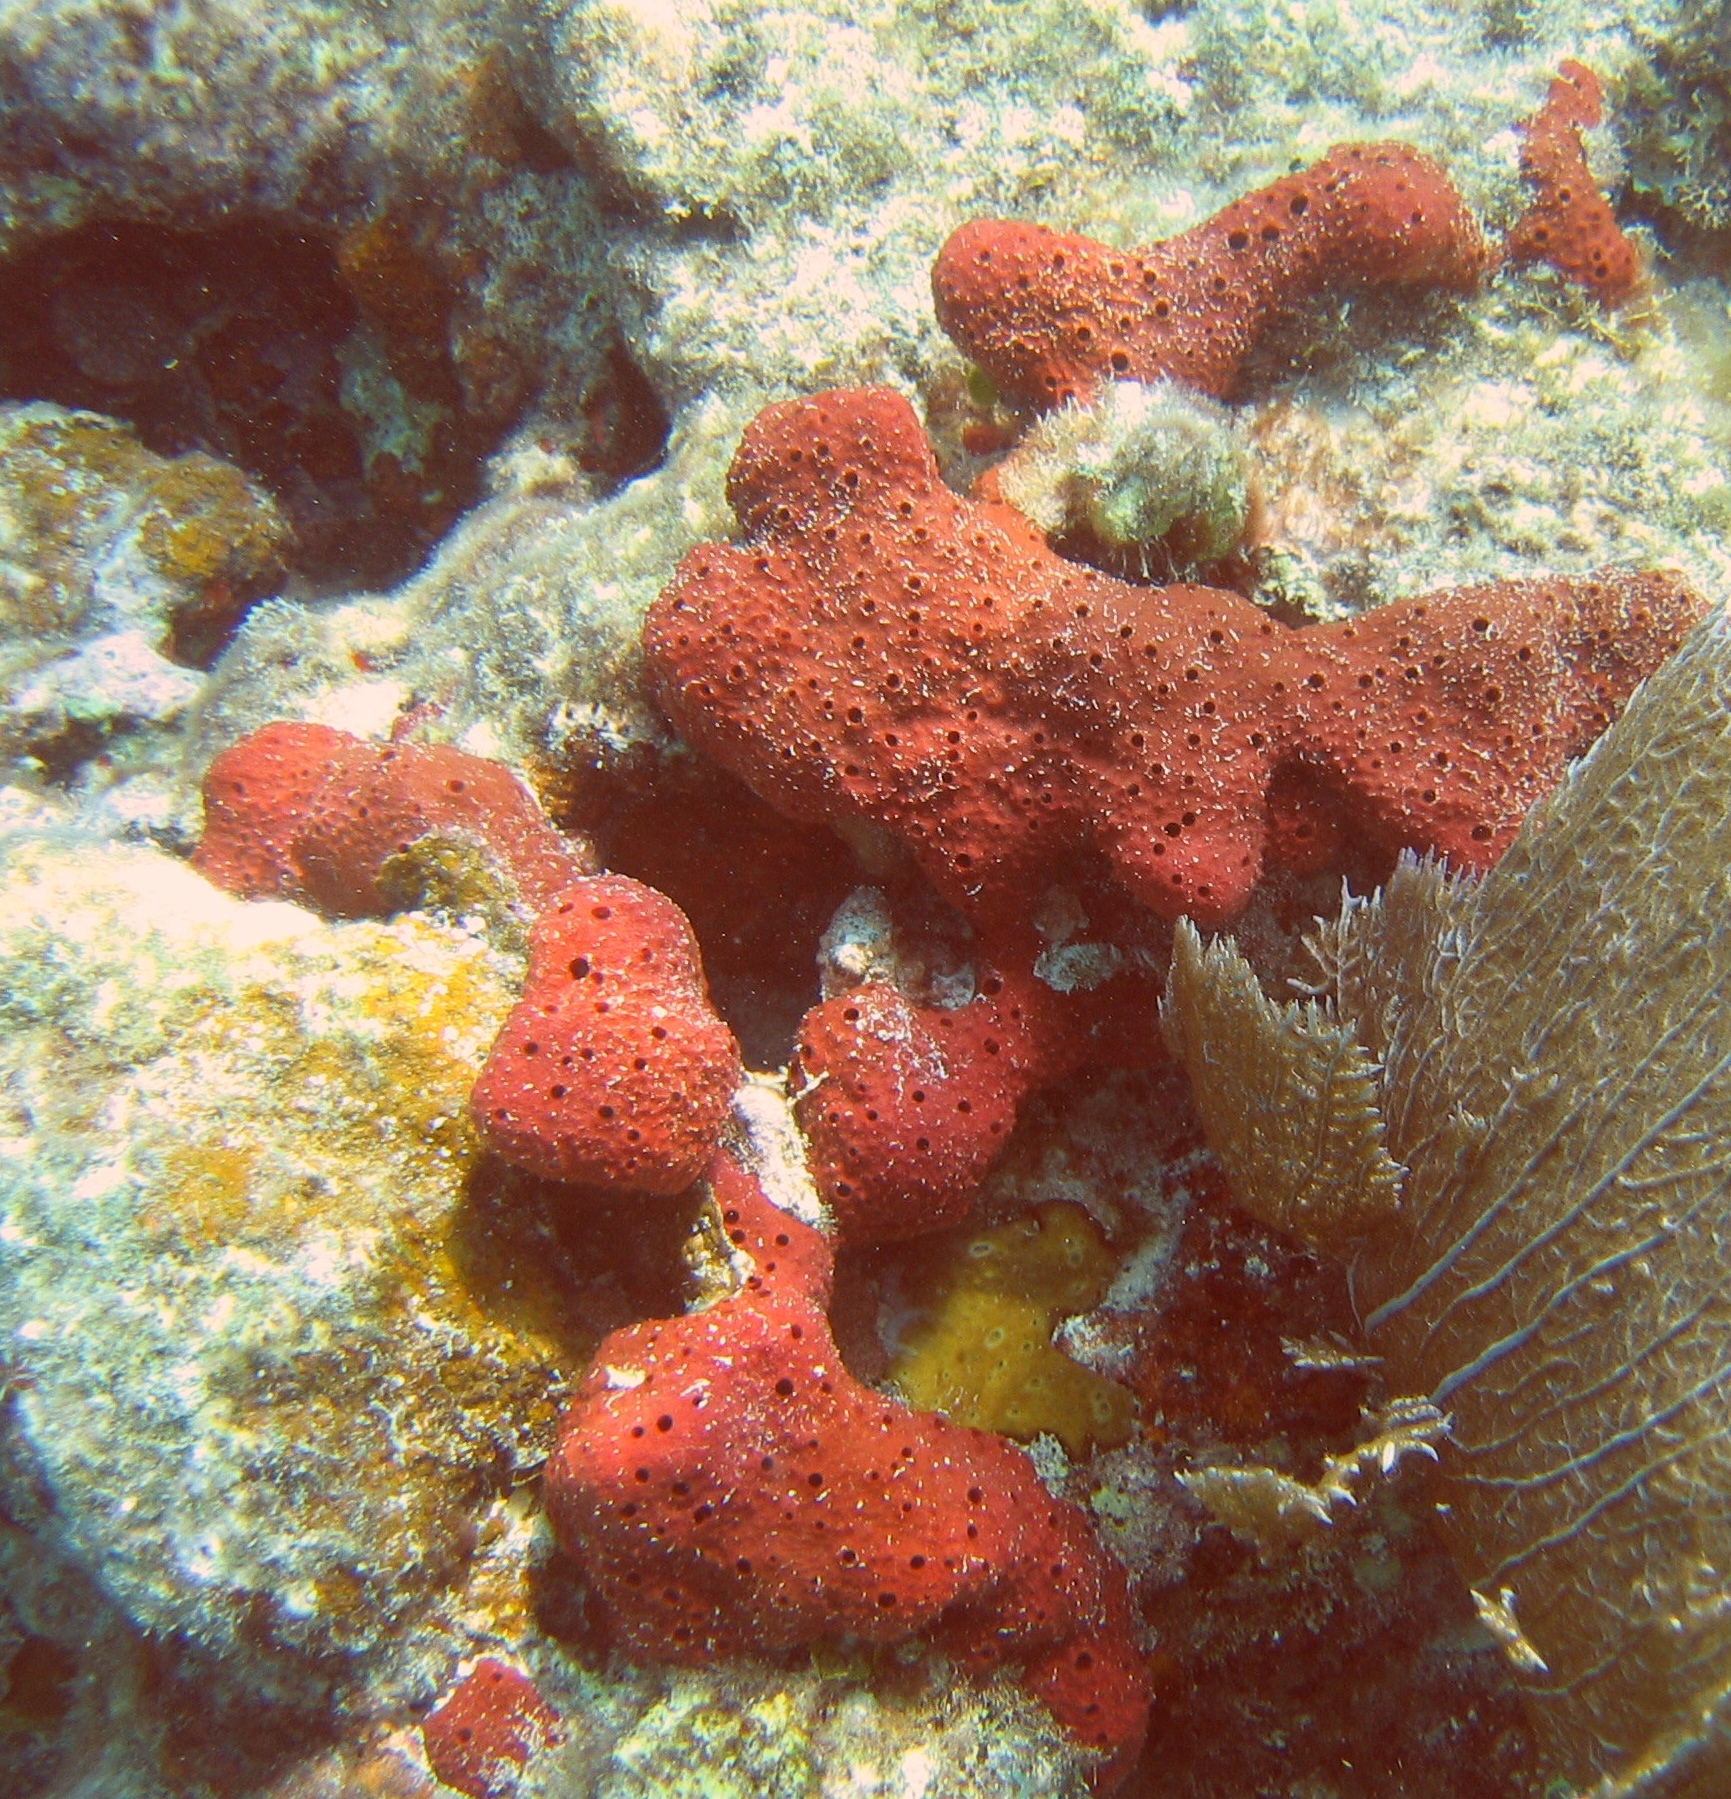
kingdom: Animalia
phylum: Porifera
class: Demospongiae
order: Haplosclerida
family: Niphatidae
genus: Amphimedon
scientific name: Amphimedon compressa
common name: Red sponge
